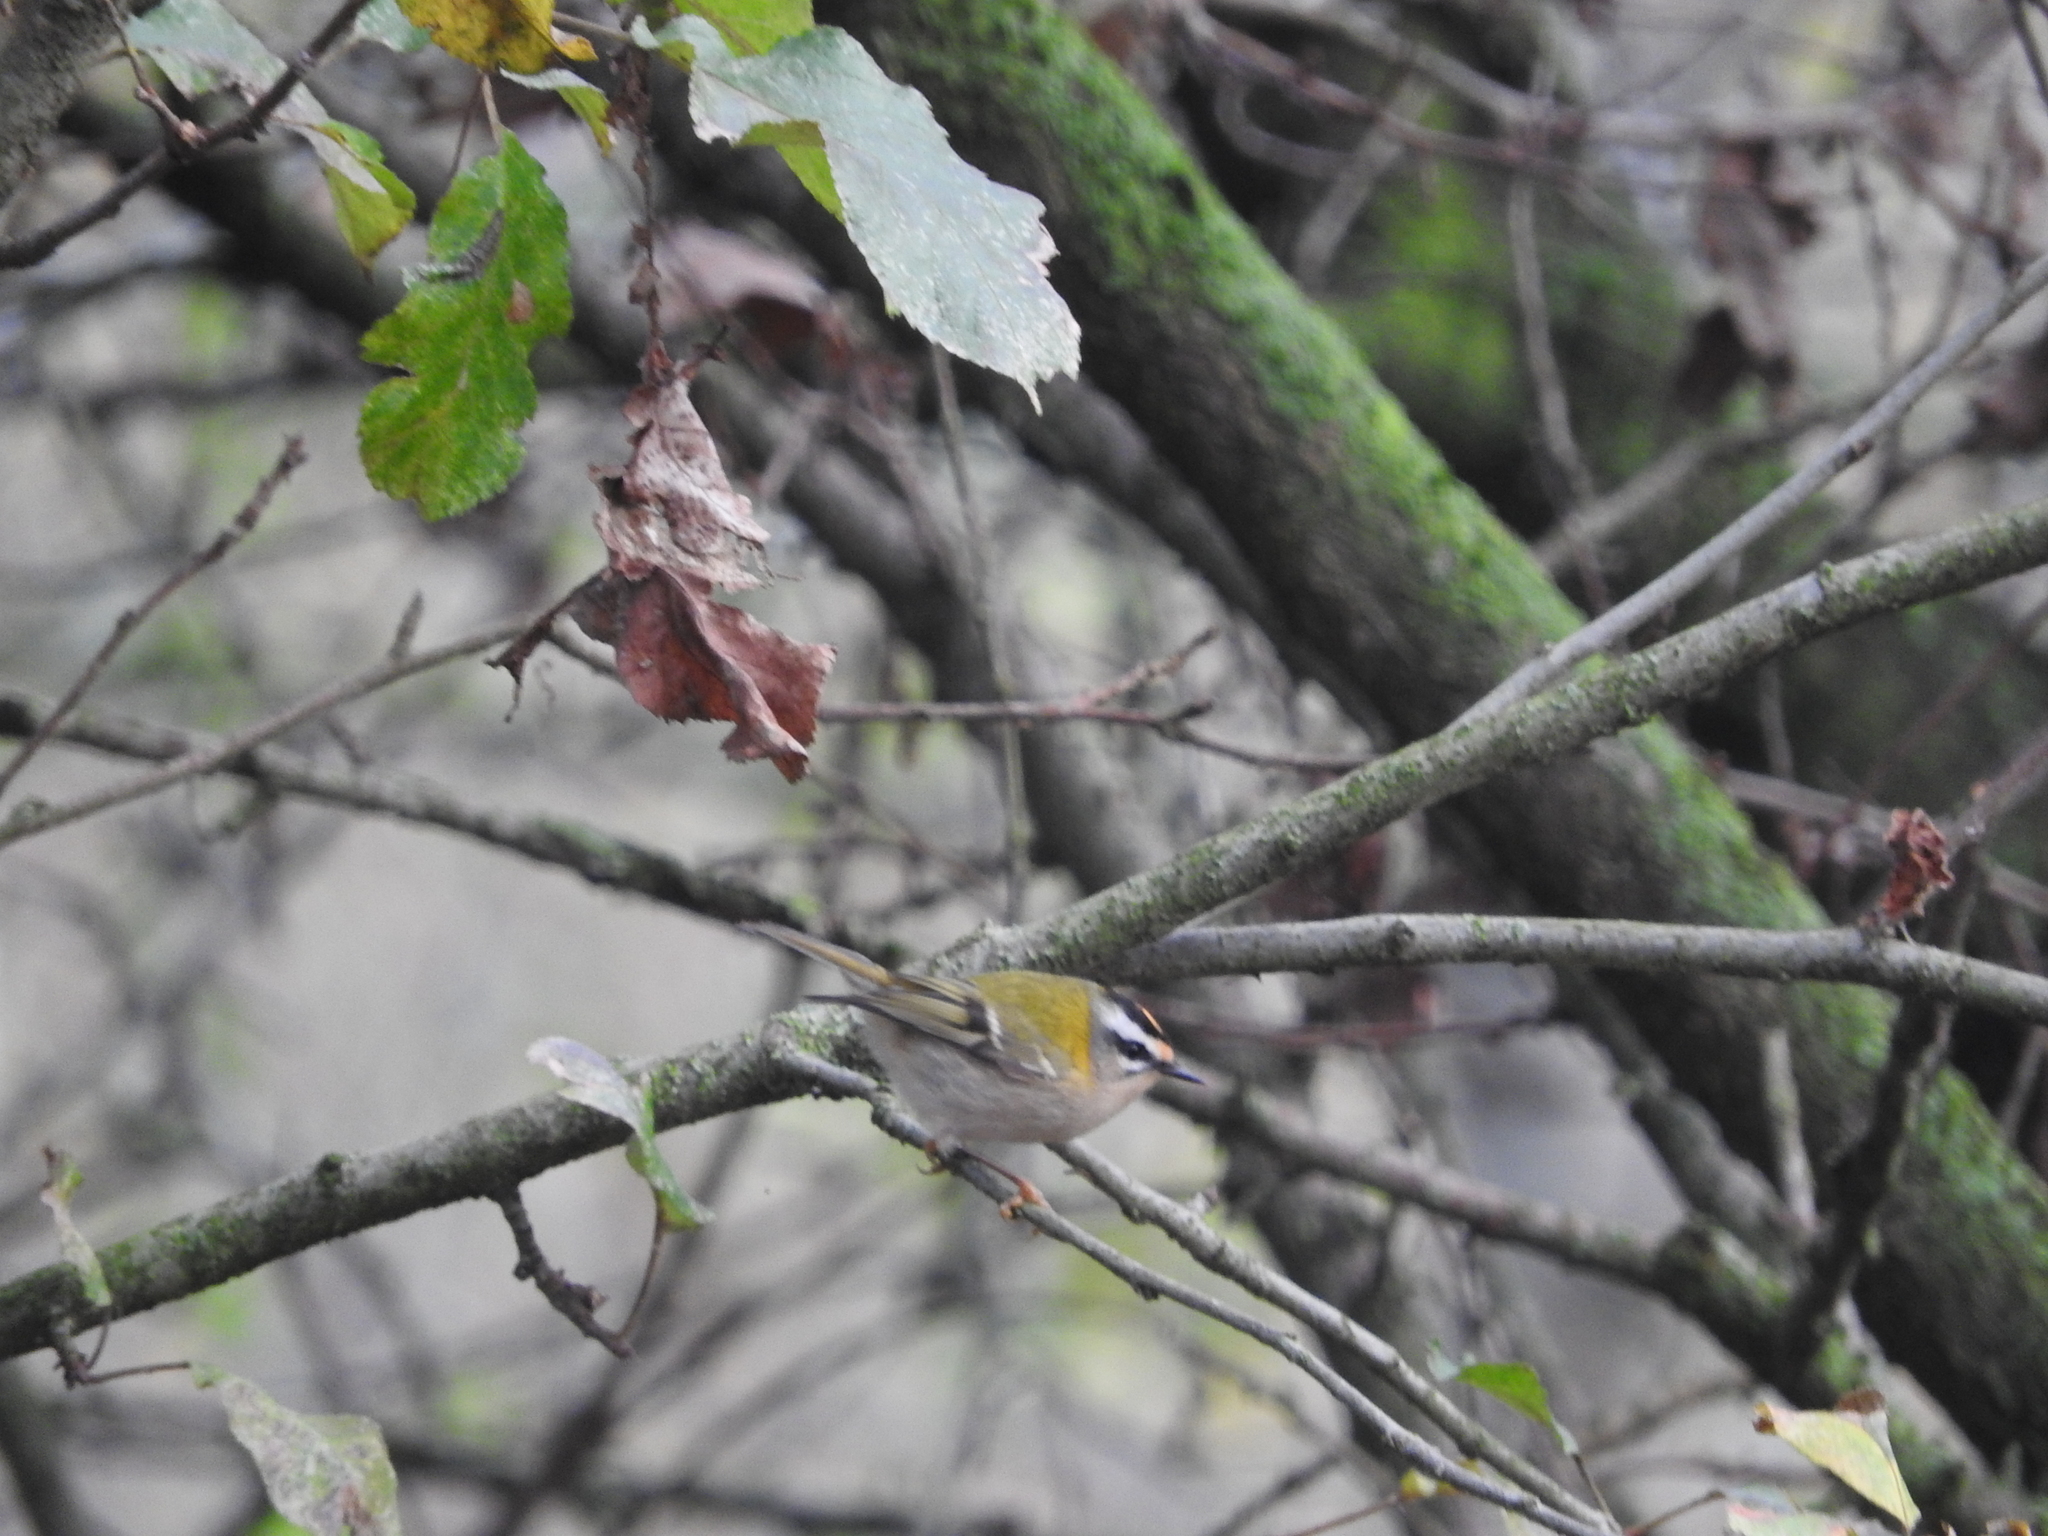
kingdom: Animalia
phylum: Chordata
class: Aves
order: Passeriformes
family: Regulidae
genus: Regulus
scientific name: Regulus ignicapilla
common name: Firecrest
